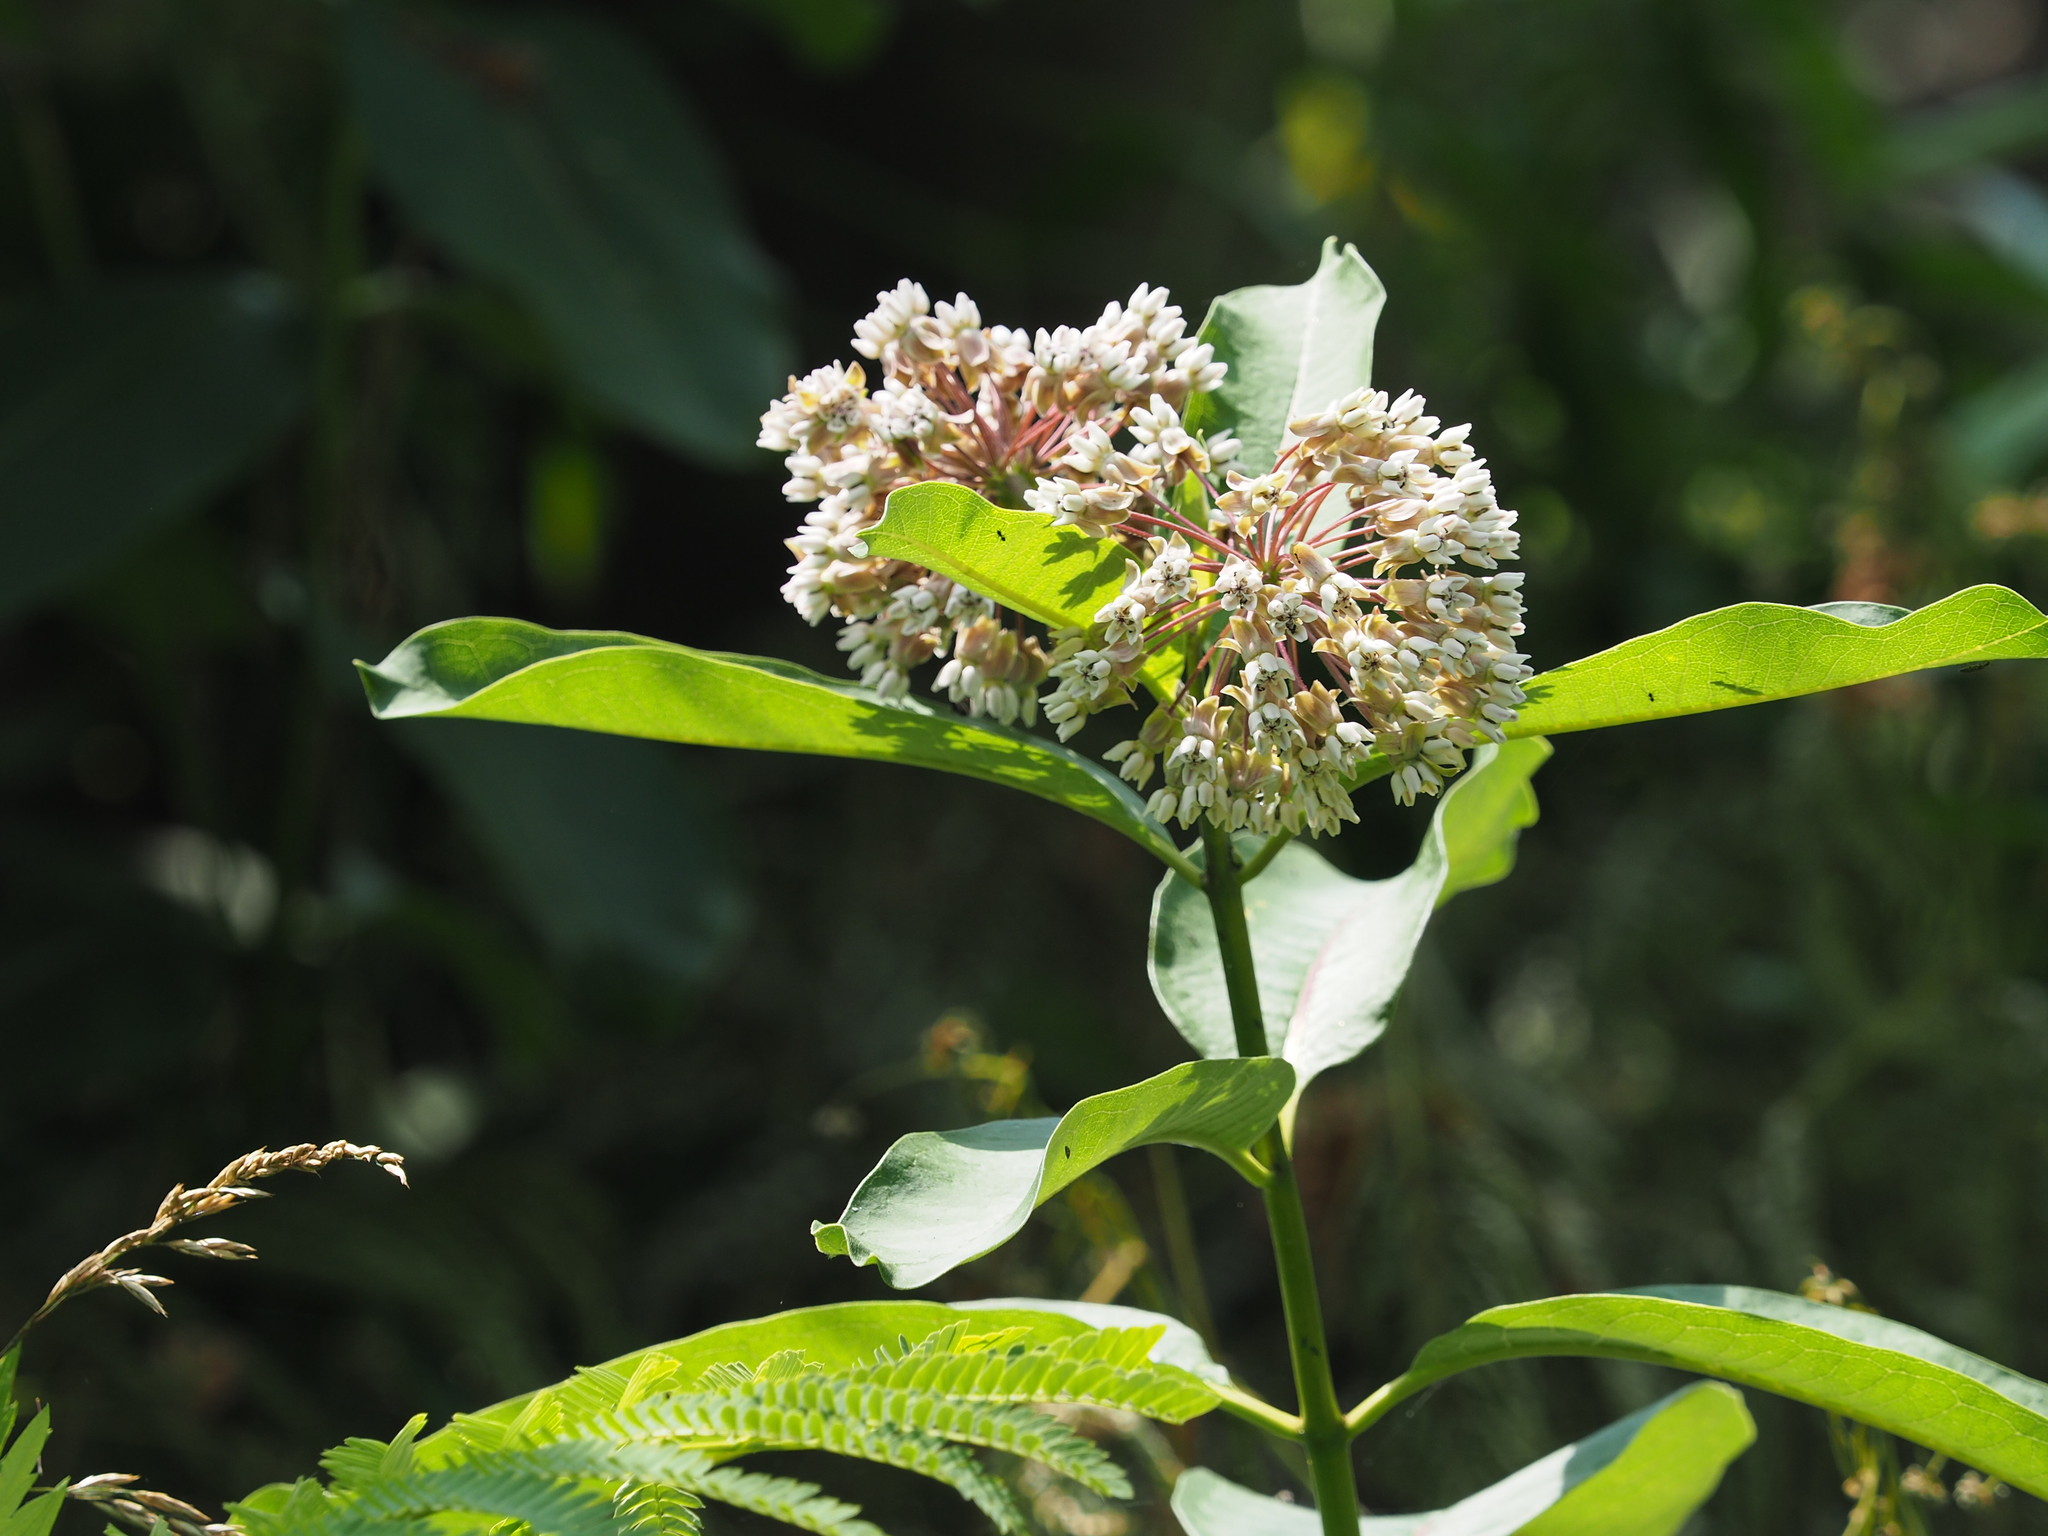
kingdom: Plantae
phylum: Tracheophyta
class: Magnoliopsida
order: Gentianales
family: Apocynaceae
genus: Asclepias
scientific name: Asclepias syriaca
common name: Common milkweed
